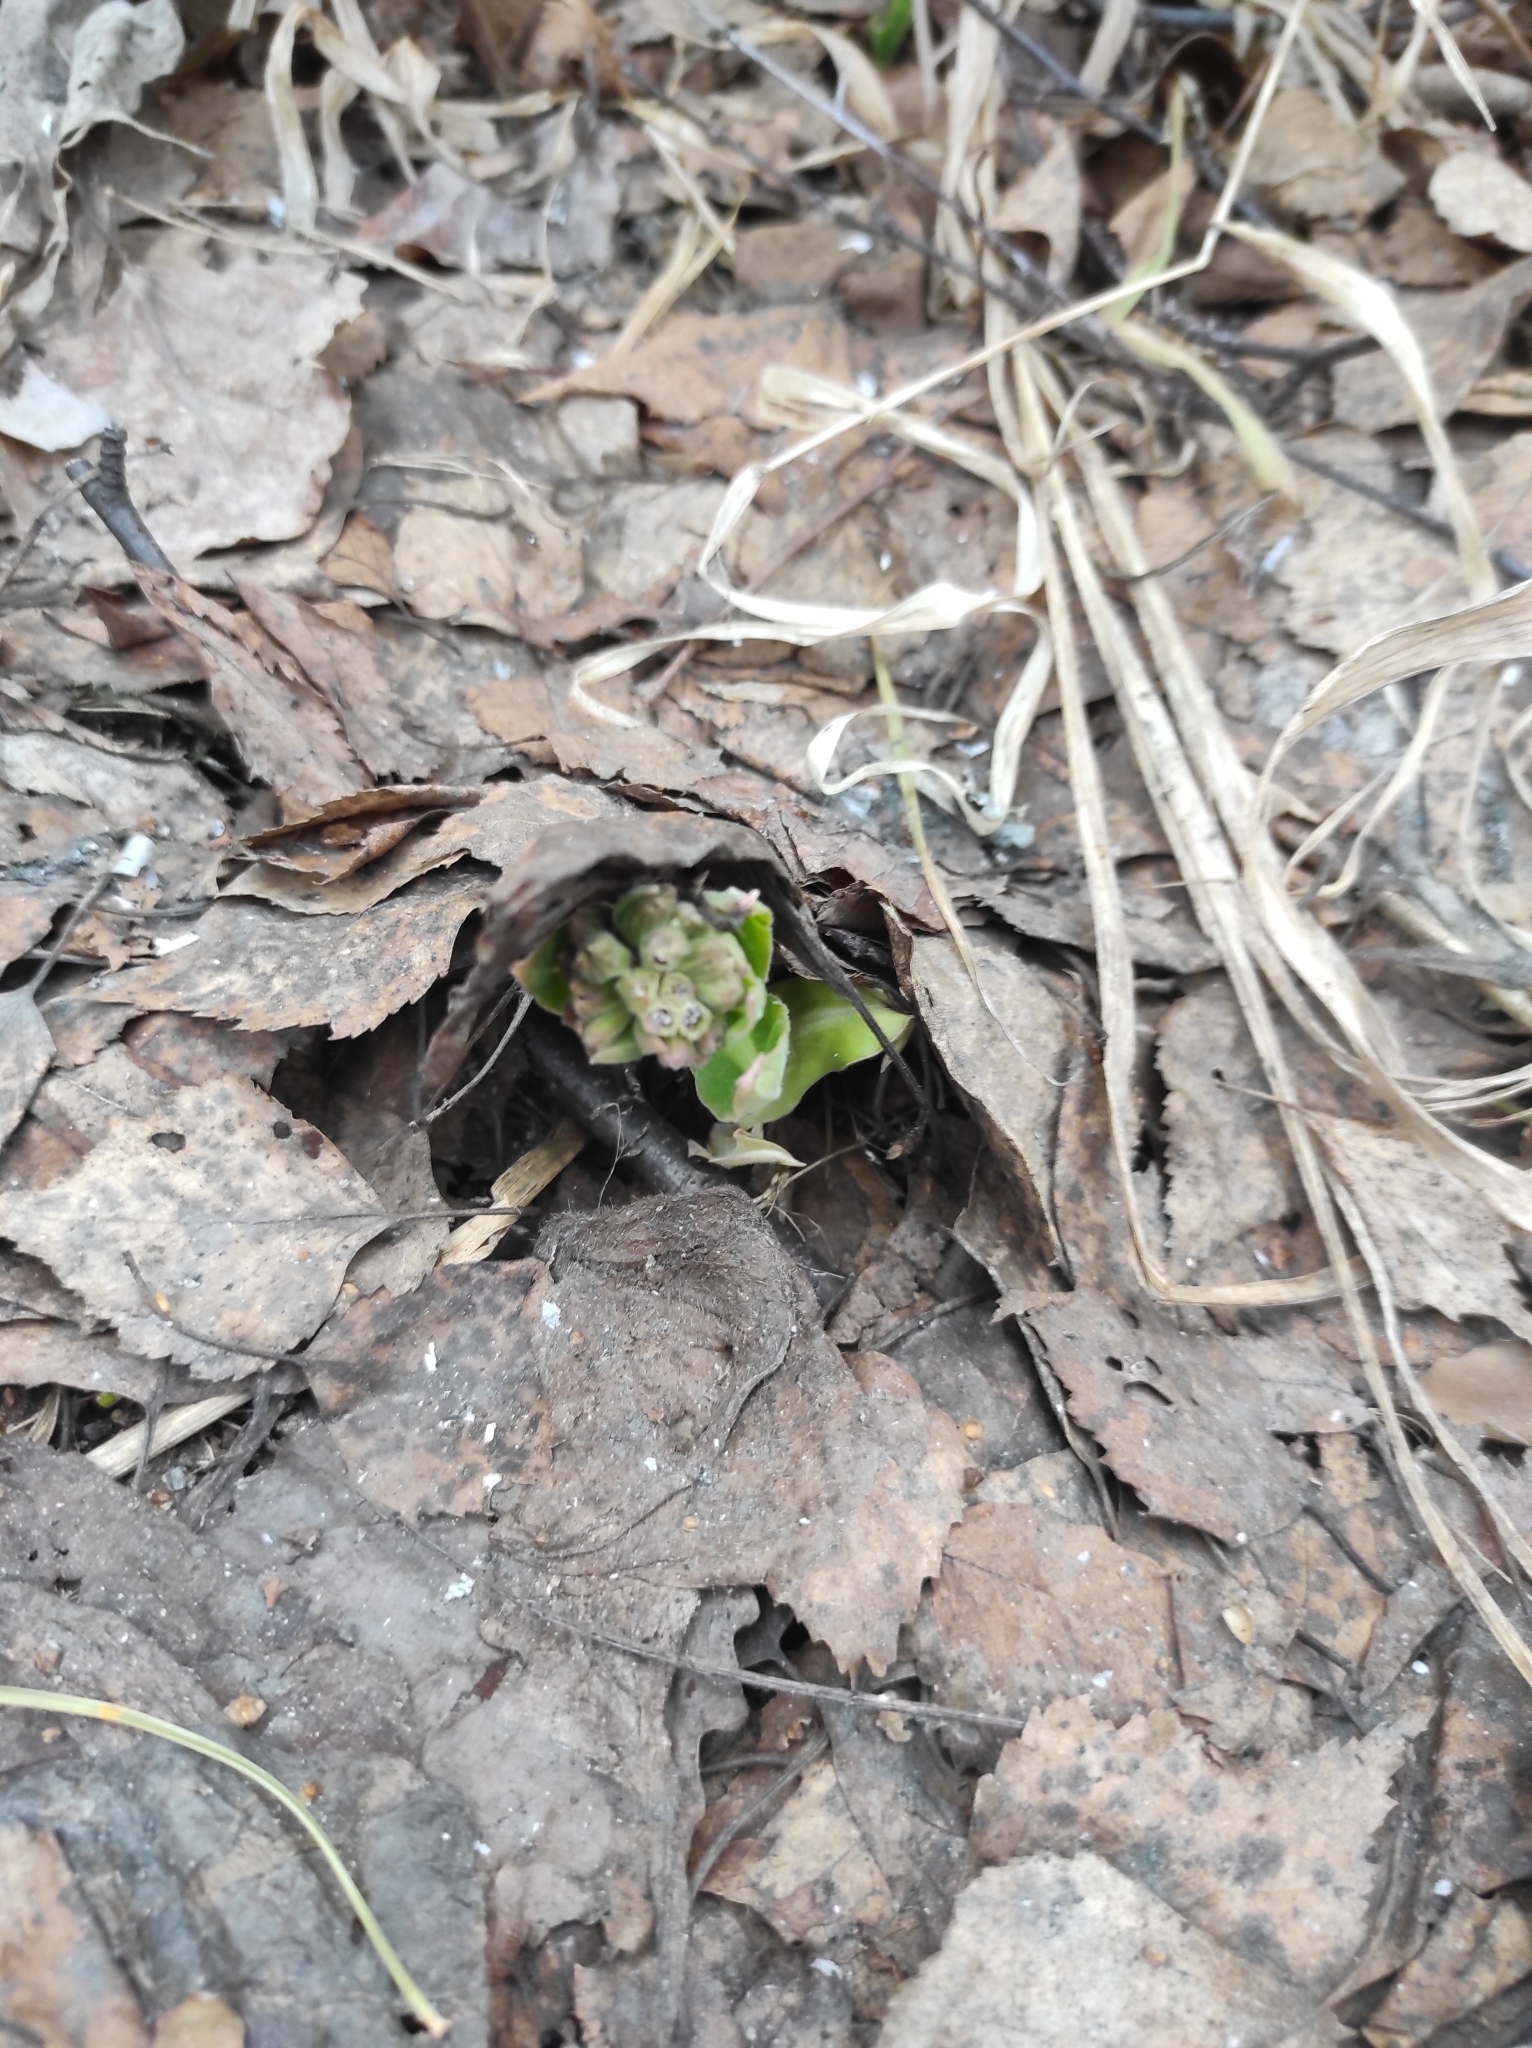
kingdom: Plantae
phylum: Tracheophyta
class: Magnoliopsida
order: Boraginales
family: Boraginaceae
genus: Pulmonaria
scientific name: Pulmonaria mollis
